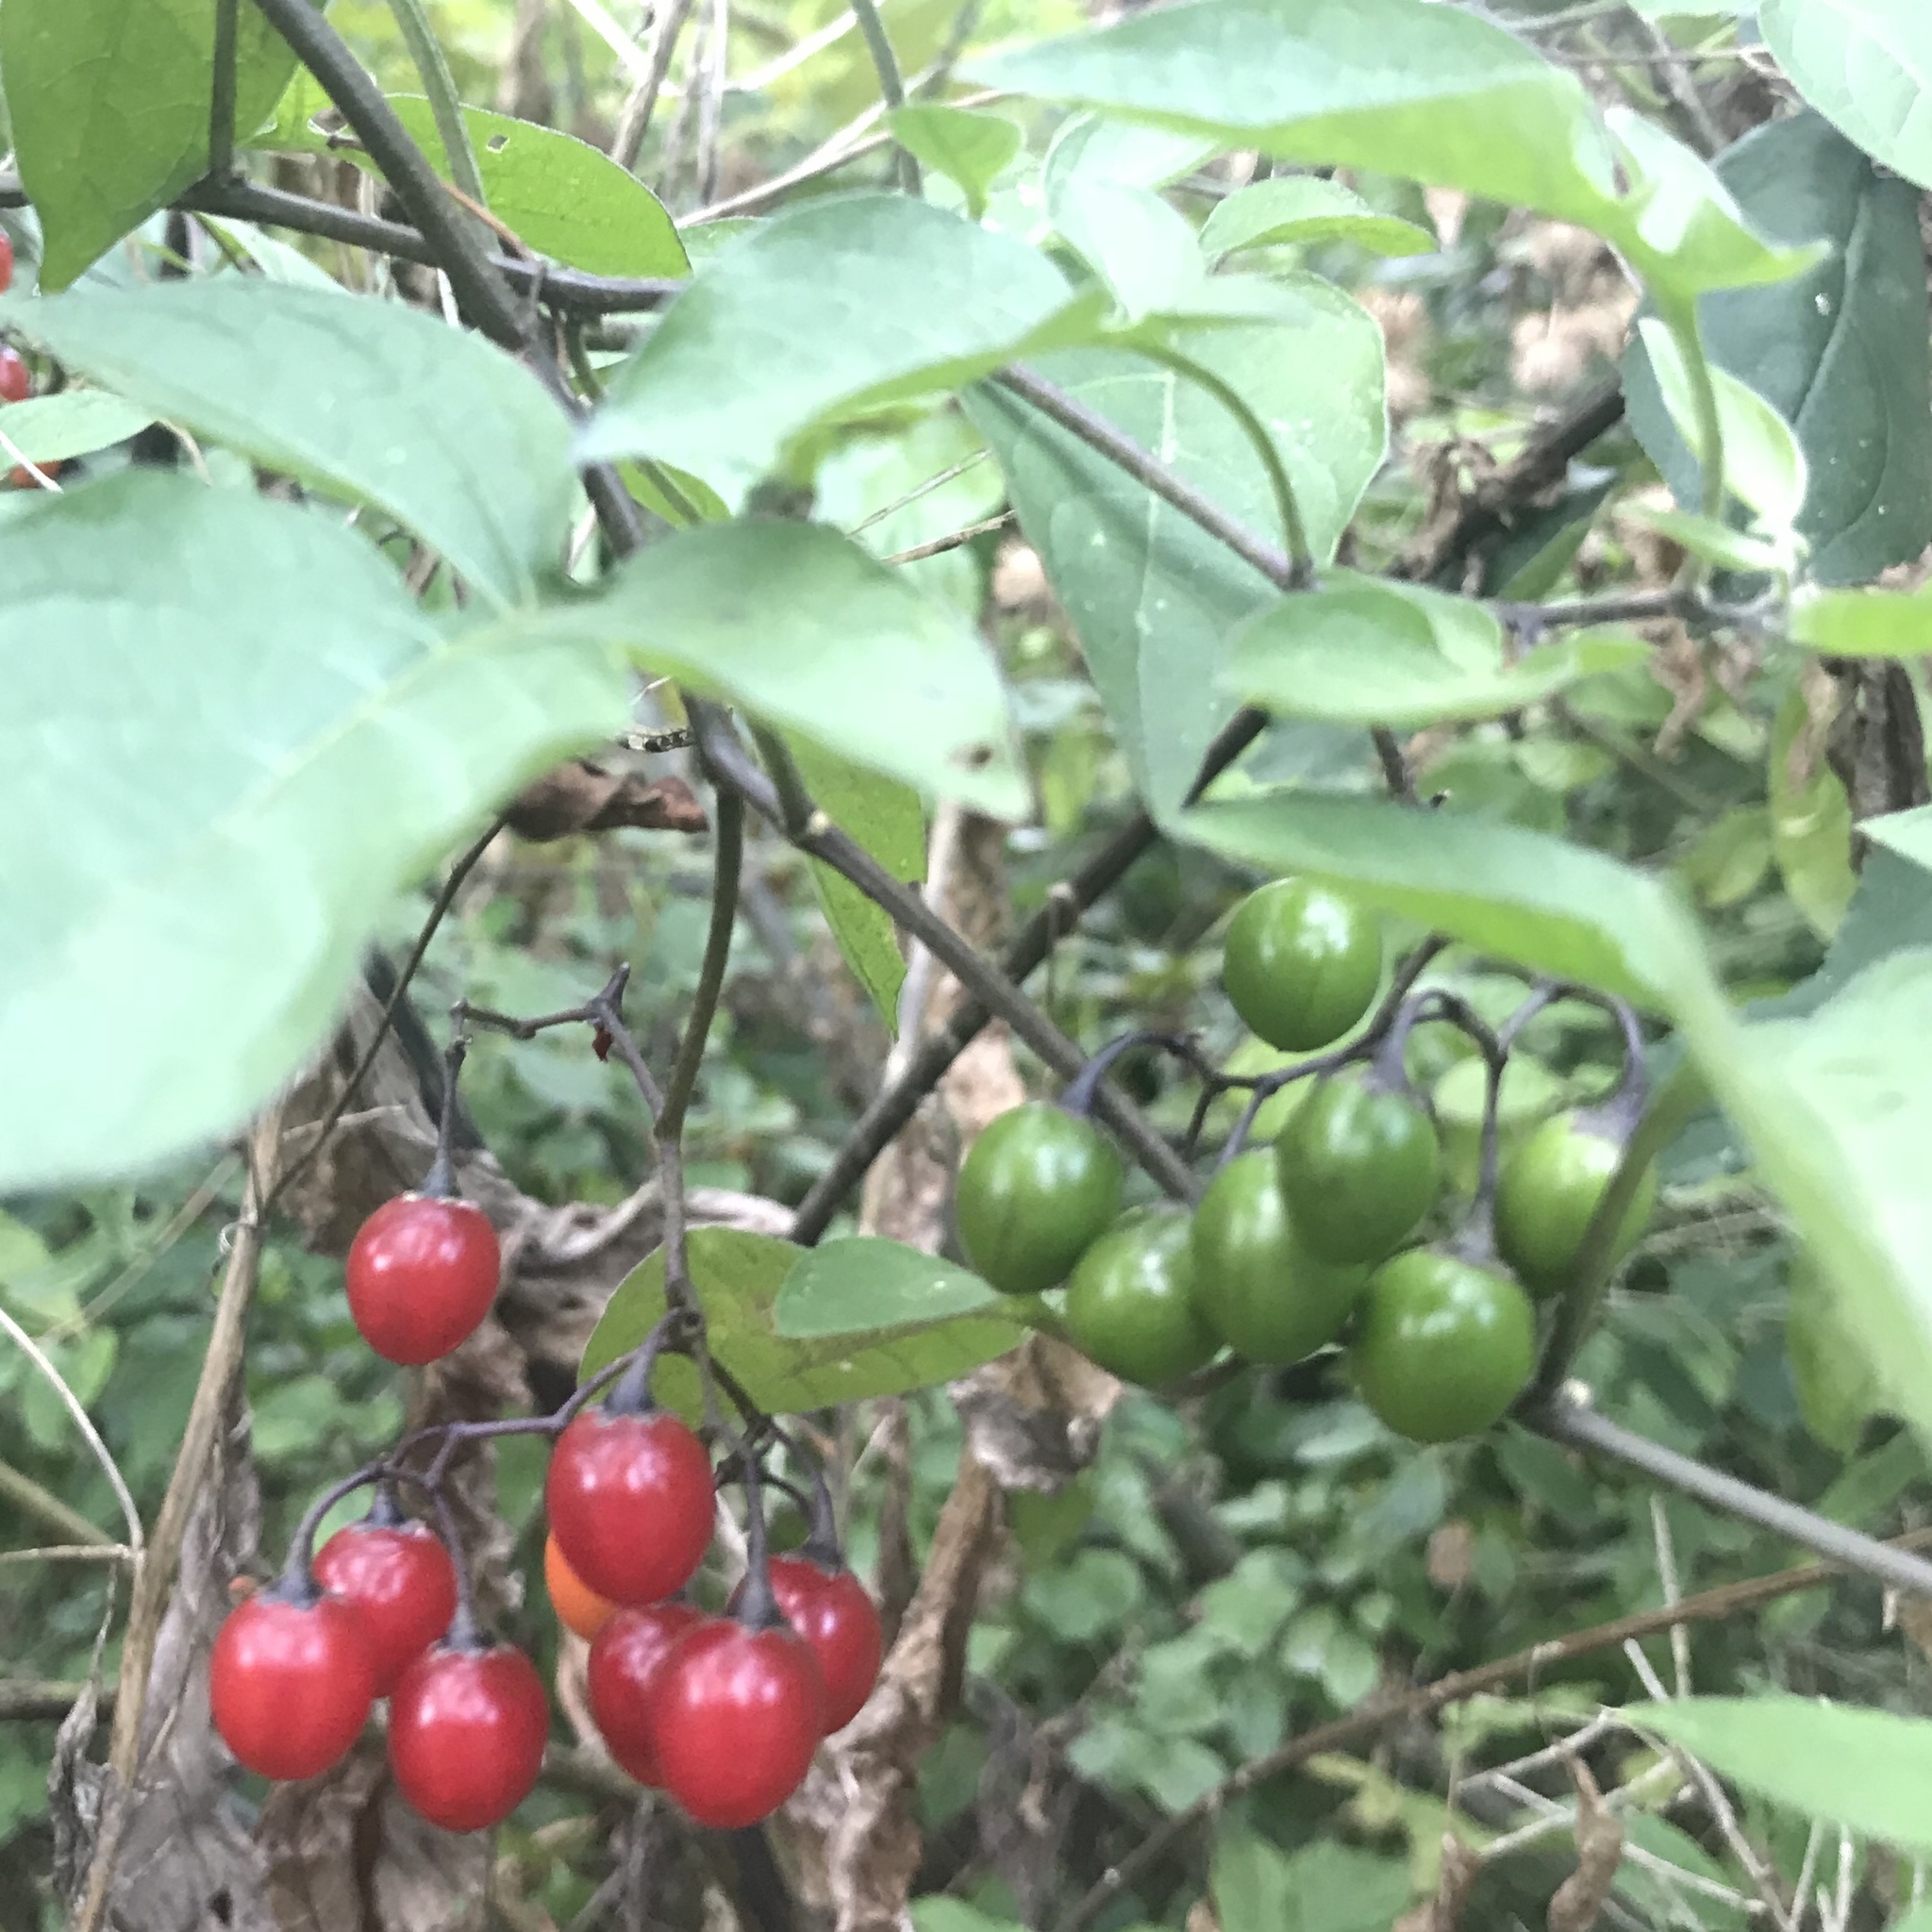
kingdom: Plantae
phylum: Tracheophyta
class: Magnoliopsida
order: Solanales
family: Solanaceae
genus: Solanum
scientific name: Solanum dulcamara
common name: Climbing nightshade
